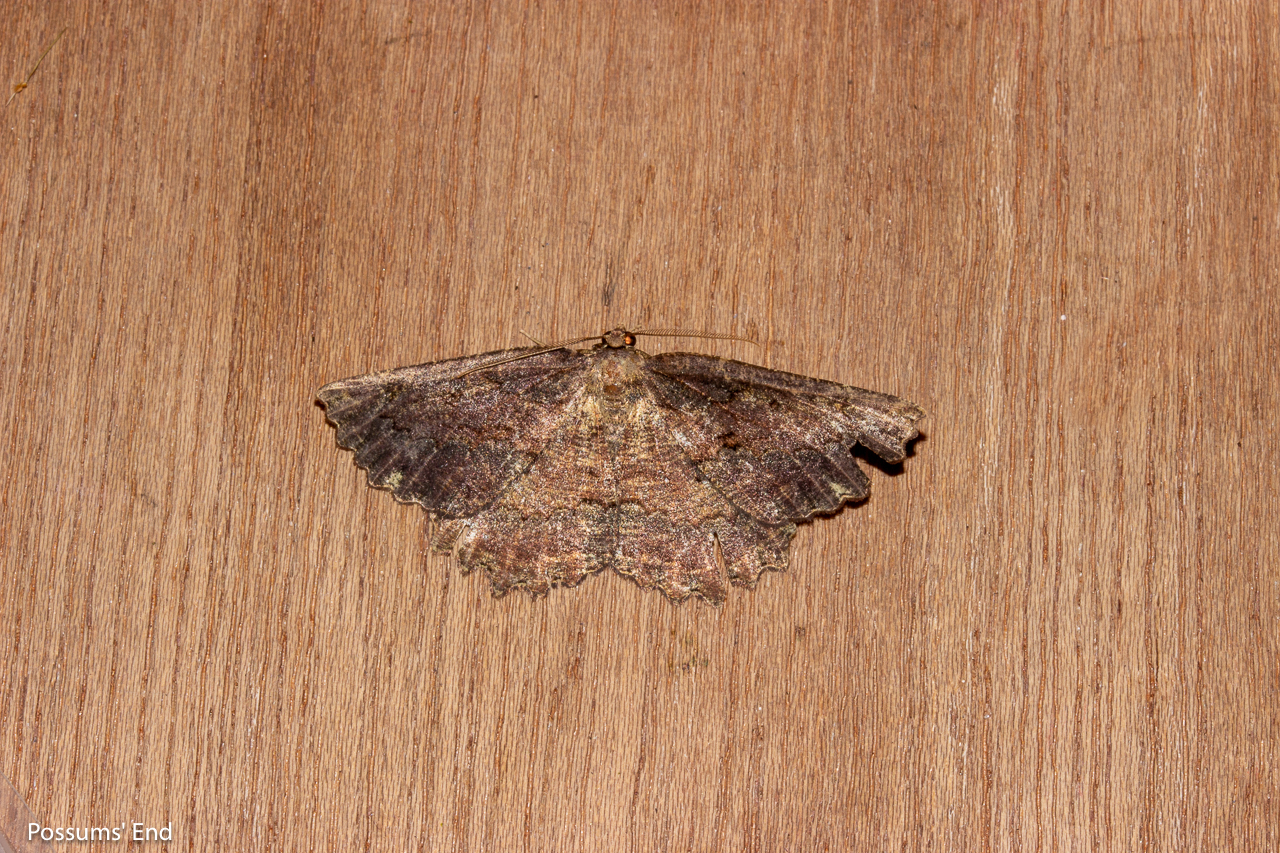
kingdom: Animalia
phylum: Arthropoda
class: Insecta
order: Lepidoptera
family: Geometridae
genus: Gellonia
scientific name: Gellonia pannularia
